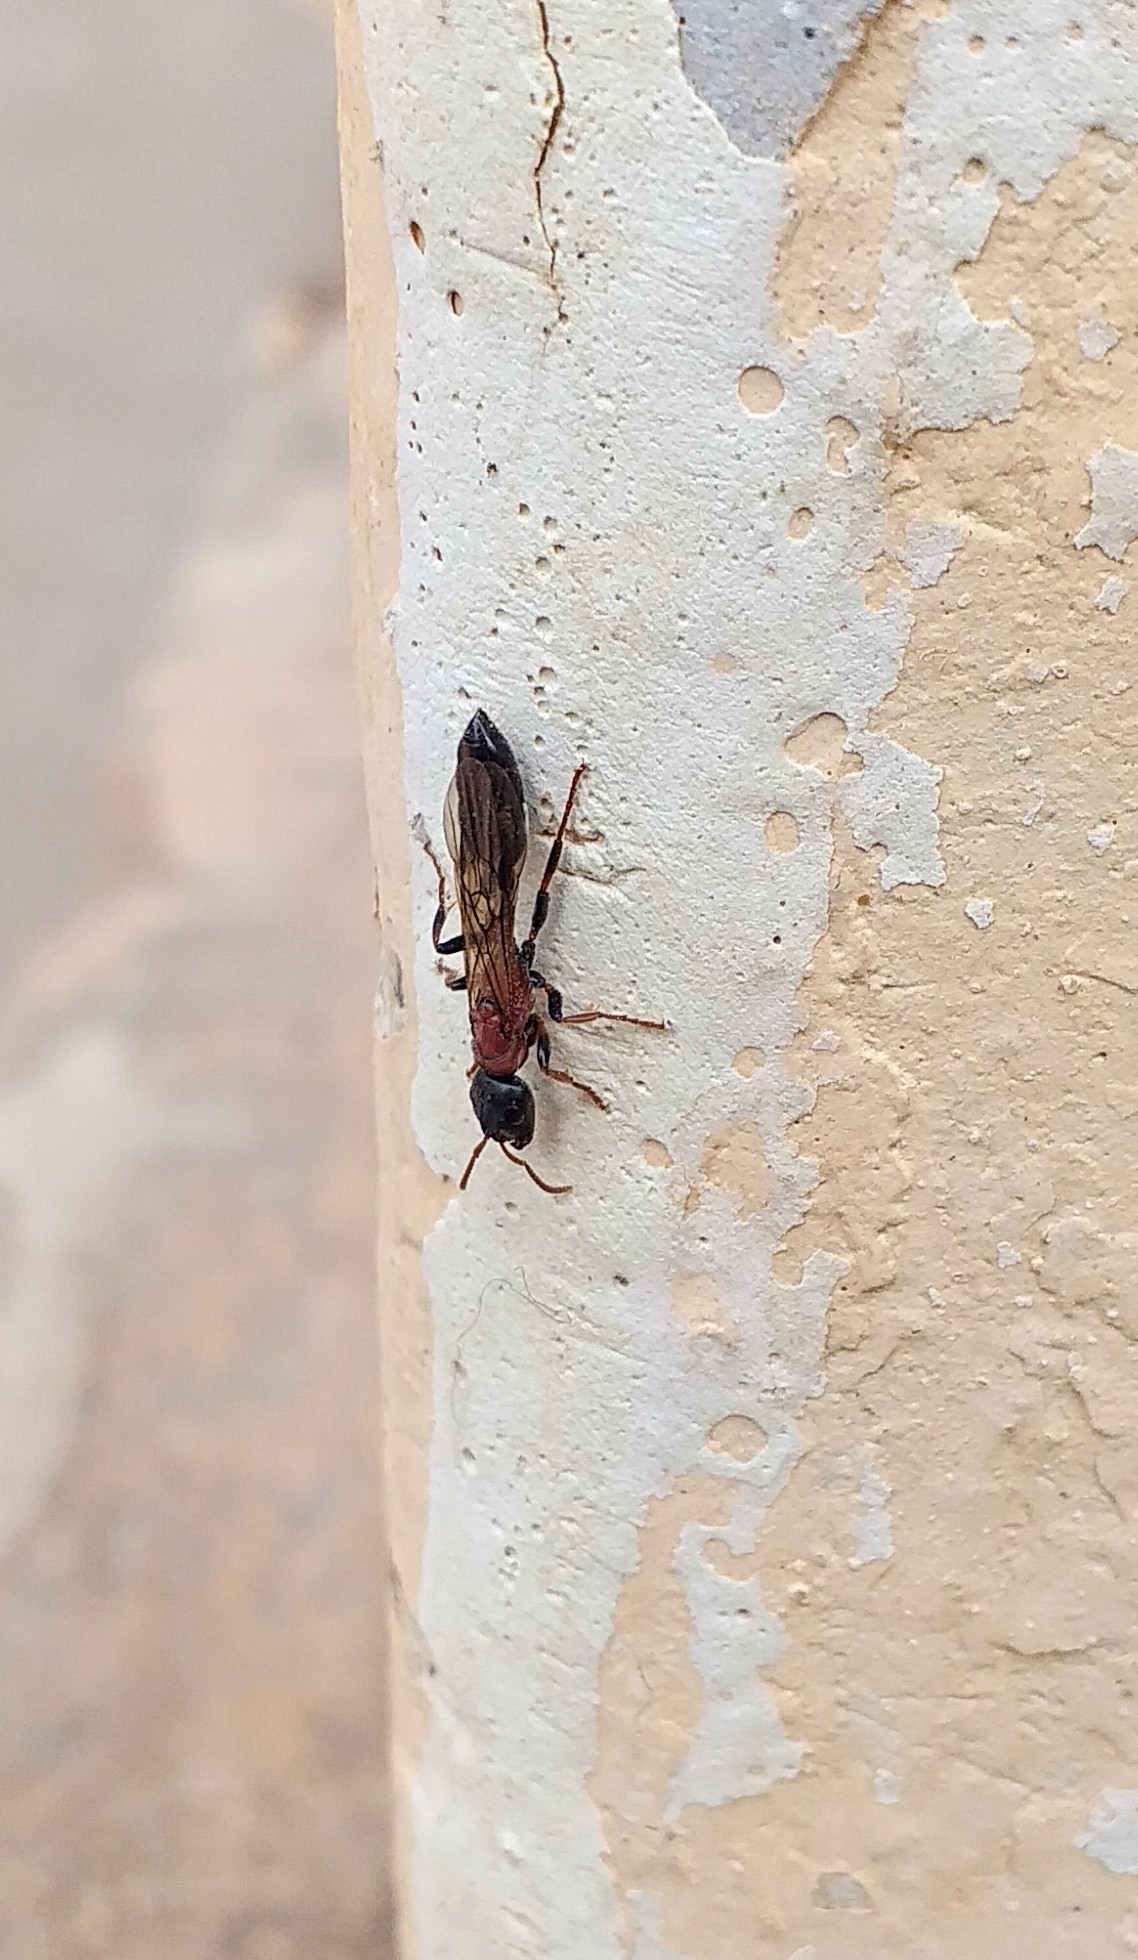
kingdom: Animalia
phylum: Arthropoda
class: Insecta
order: Hymenoptera
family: Formicidae
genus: Tetraponera
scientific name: Tetraponera rufonigra
